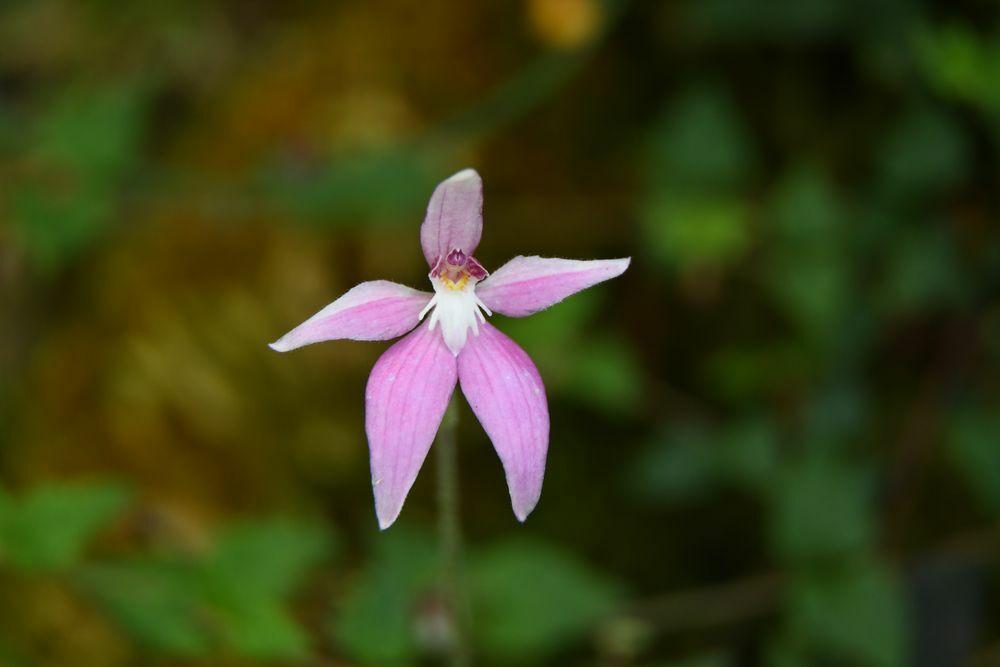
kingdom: Plantae
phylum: Tracheophyta
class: Liliopsida
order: Asparagales
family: Orchidaceae
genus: Caladenia
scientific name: Caladenia latifolia
